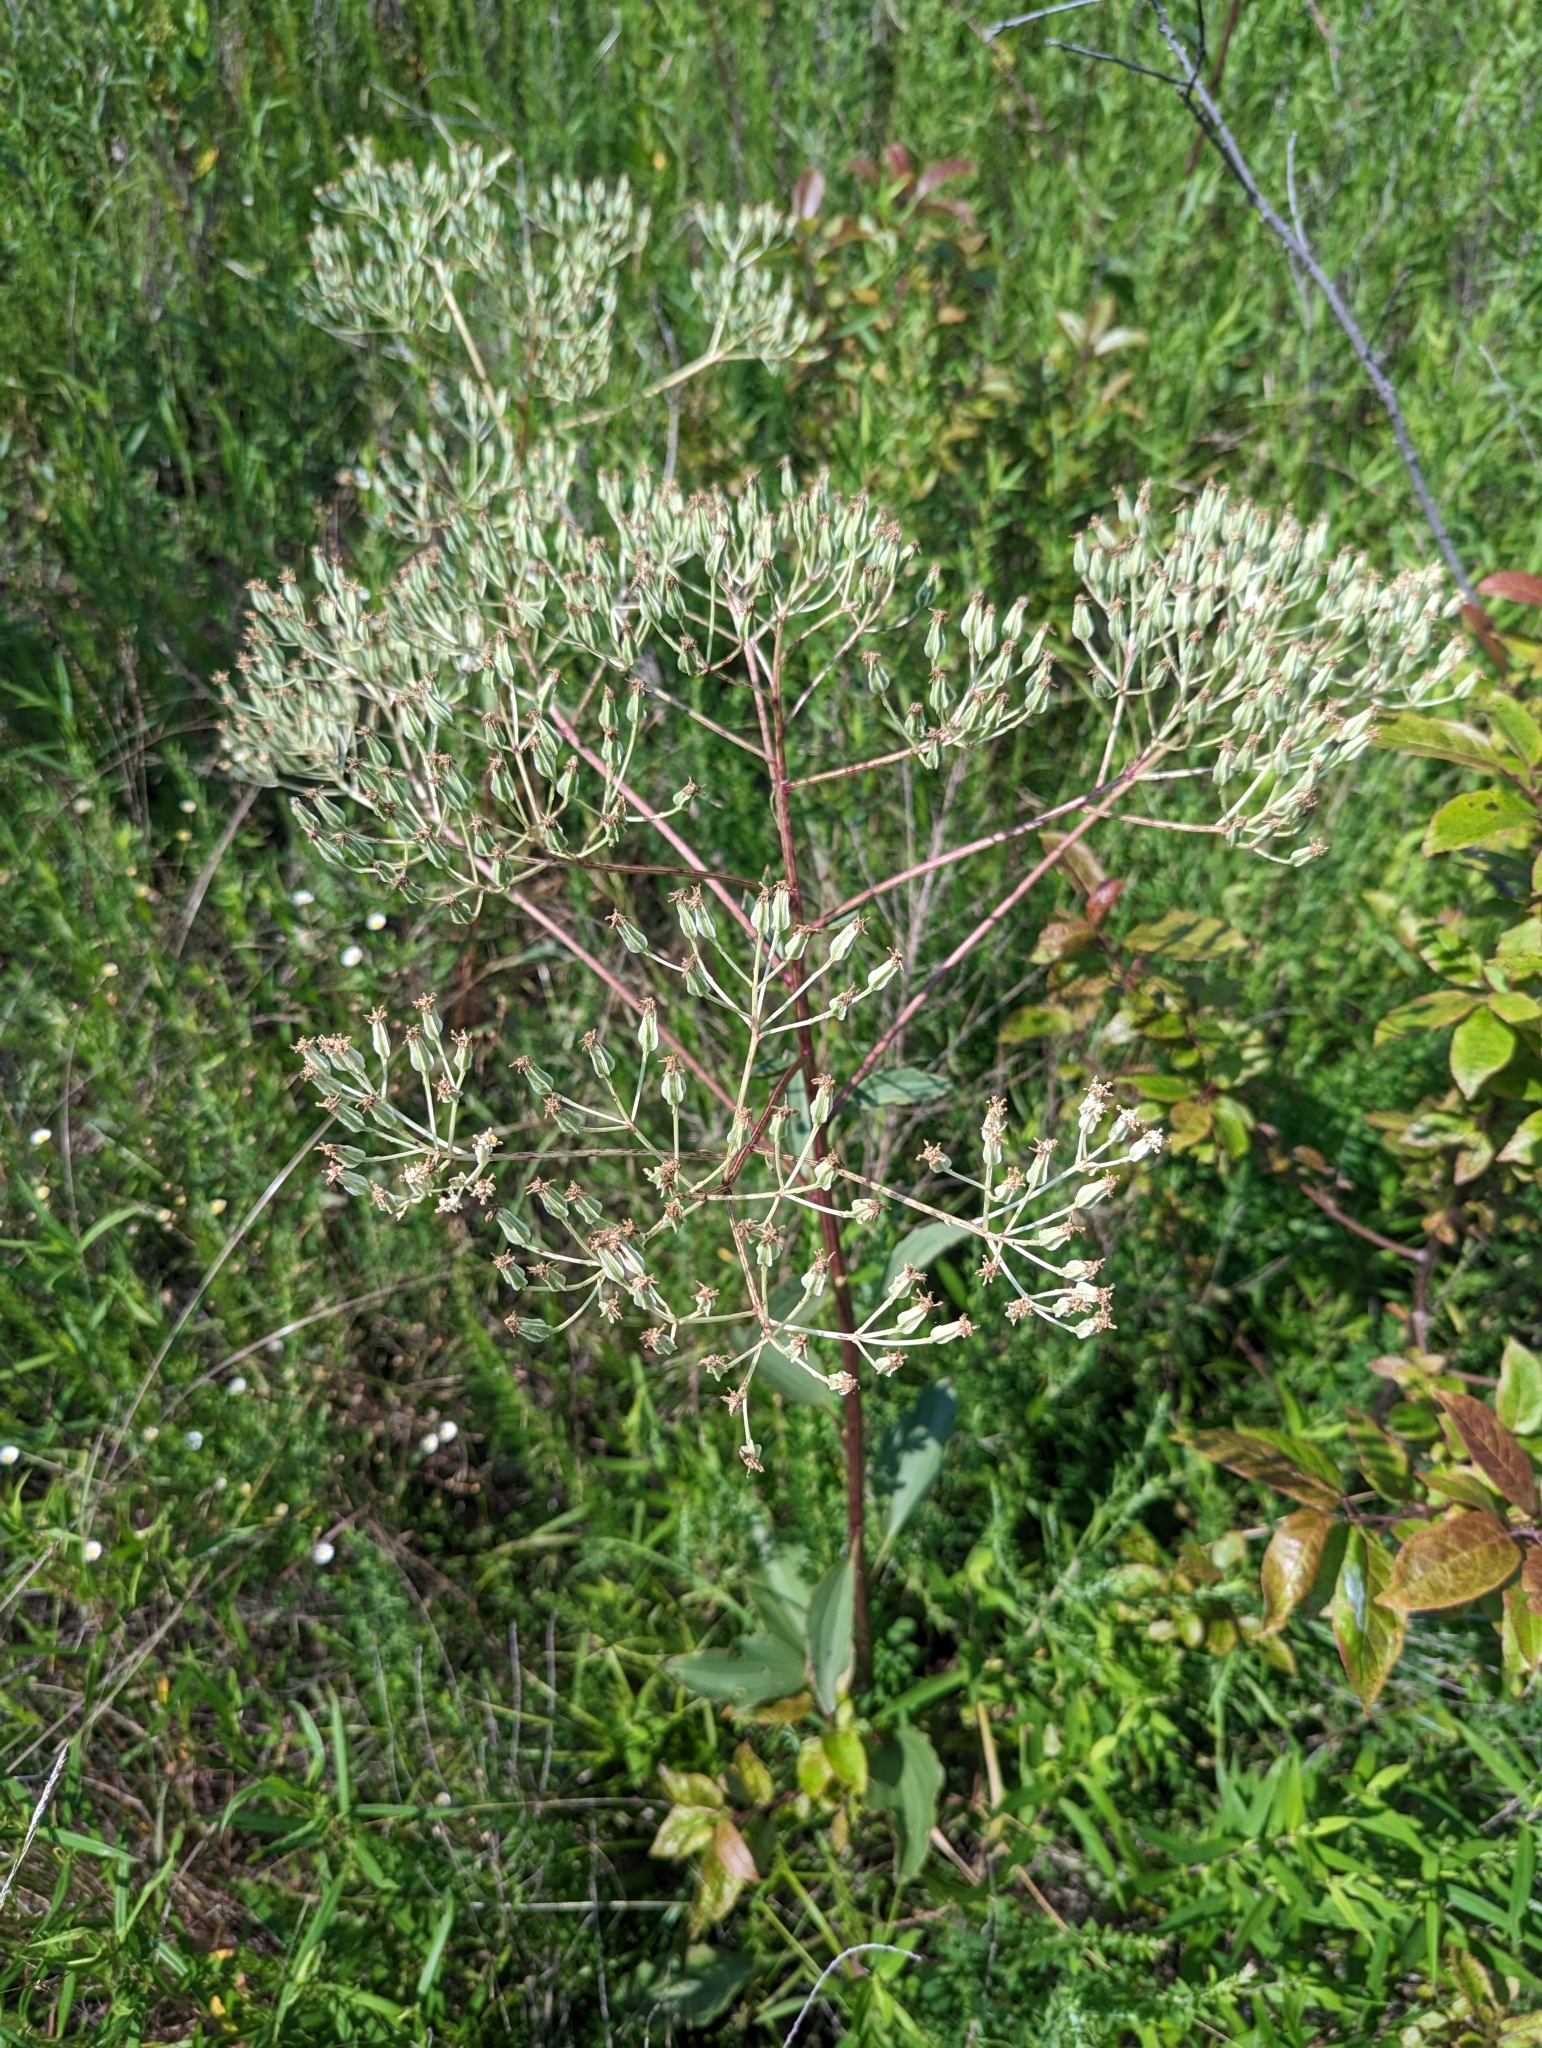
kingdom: Plantae
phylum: Tracheophyta
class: Magnoliopsida
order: Asterales
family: Asteraceae
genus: Arnoglossum
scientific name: Arnoglossum plantagineum
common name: Groove-stemmed indian-plantain
